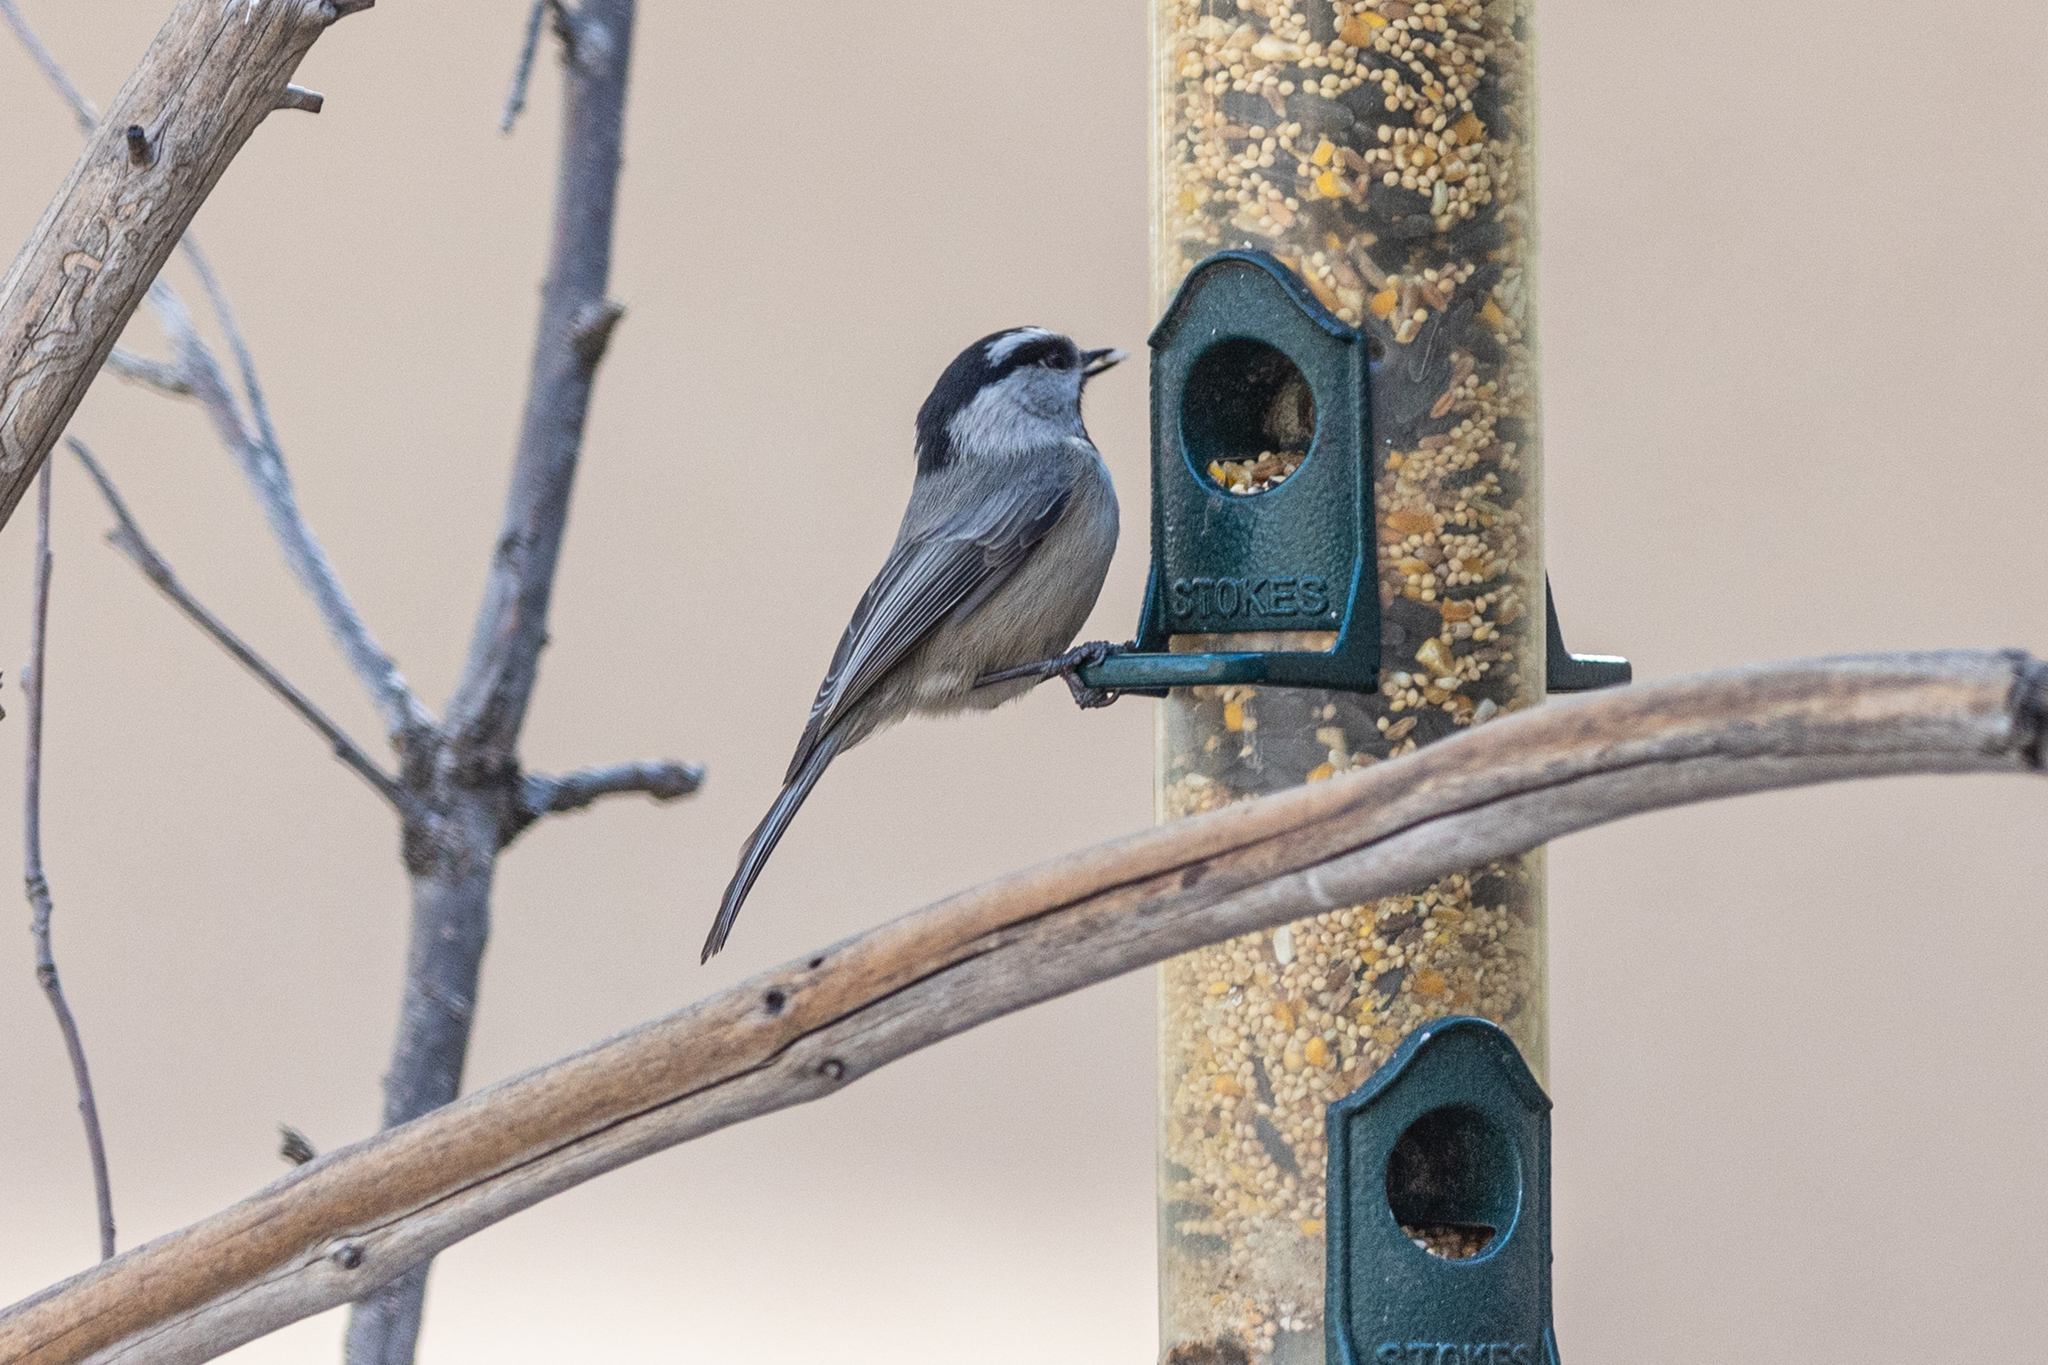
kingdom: Animalia
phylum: Chordata
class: Aves
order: Passeriformes
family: Paridae
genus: Poecile
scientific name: Poecile gambeli
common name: Mountain chickadee
